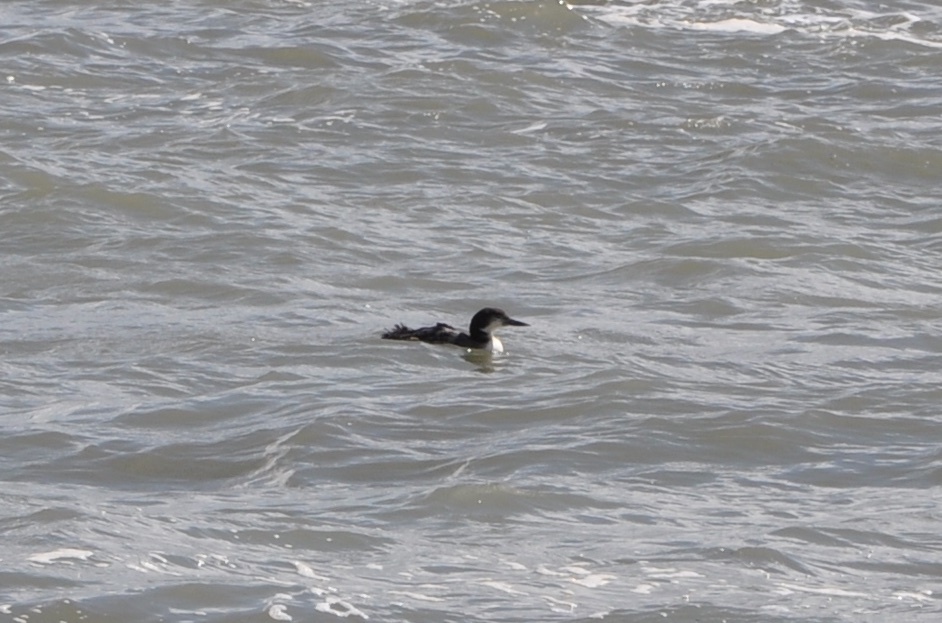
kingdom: Animalia
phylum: Chordata
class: Aves
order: Gaviiformes
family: Gaviidae
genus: Gavia
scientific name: Gavia immer
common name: Common loon
